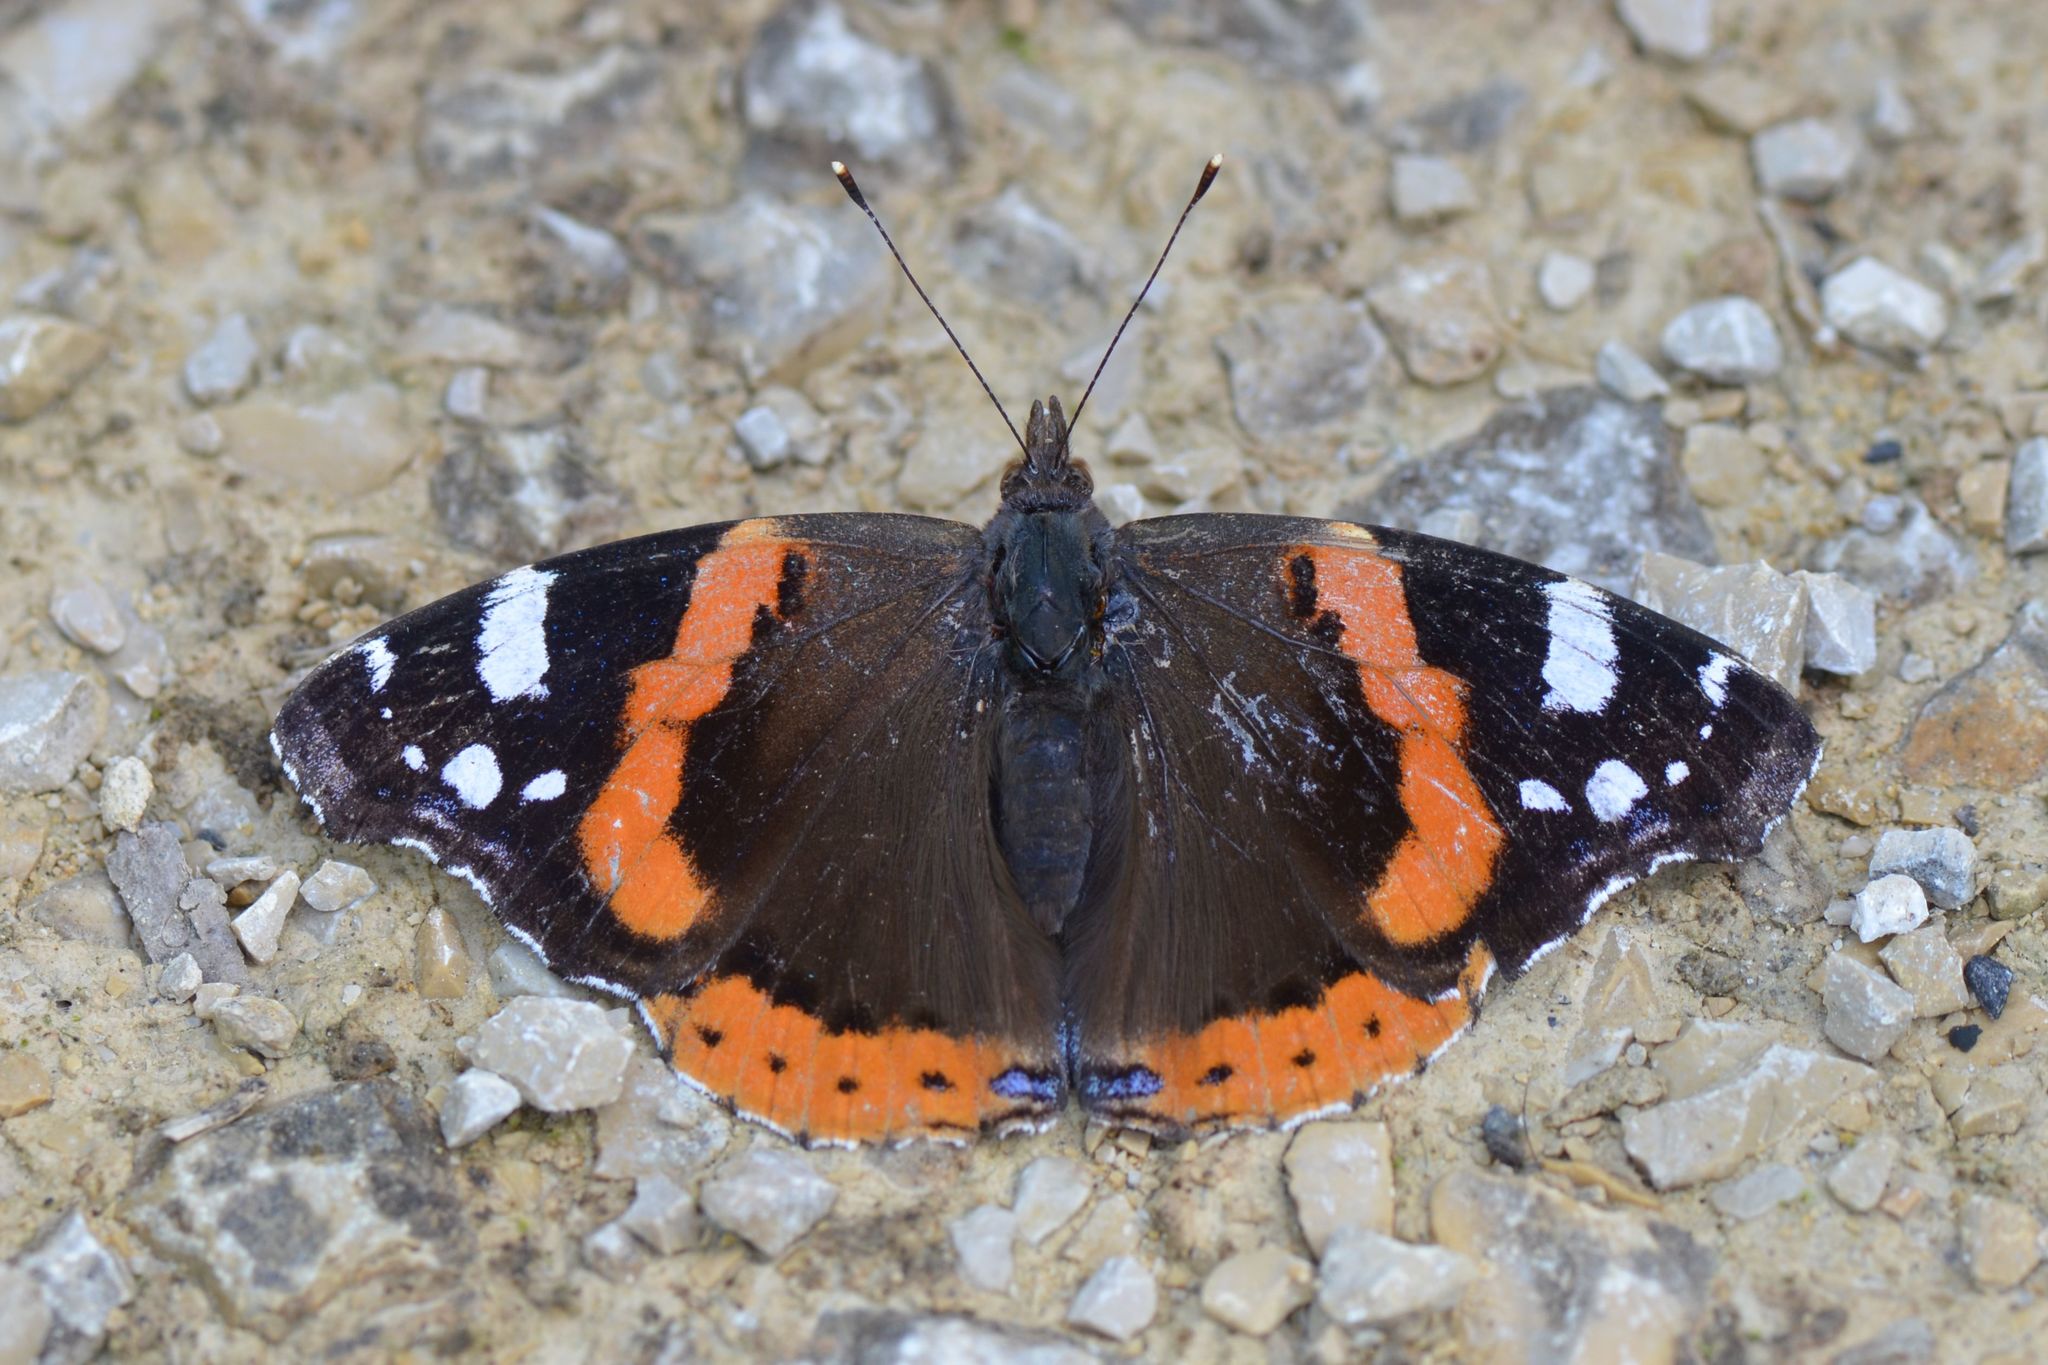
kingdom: Animalia
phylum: Arthropoda
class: Insecta
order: Lepidoptera
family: Nymphalidae
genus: Vanessa
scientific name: Vanessa atalanta
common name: Red admiral
